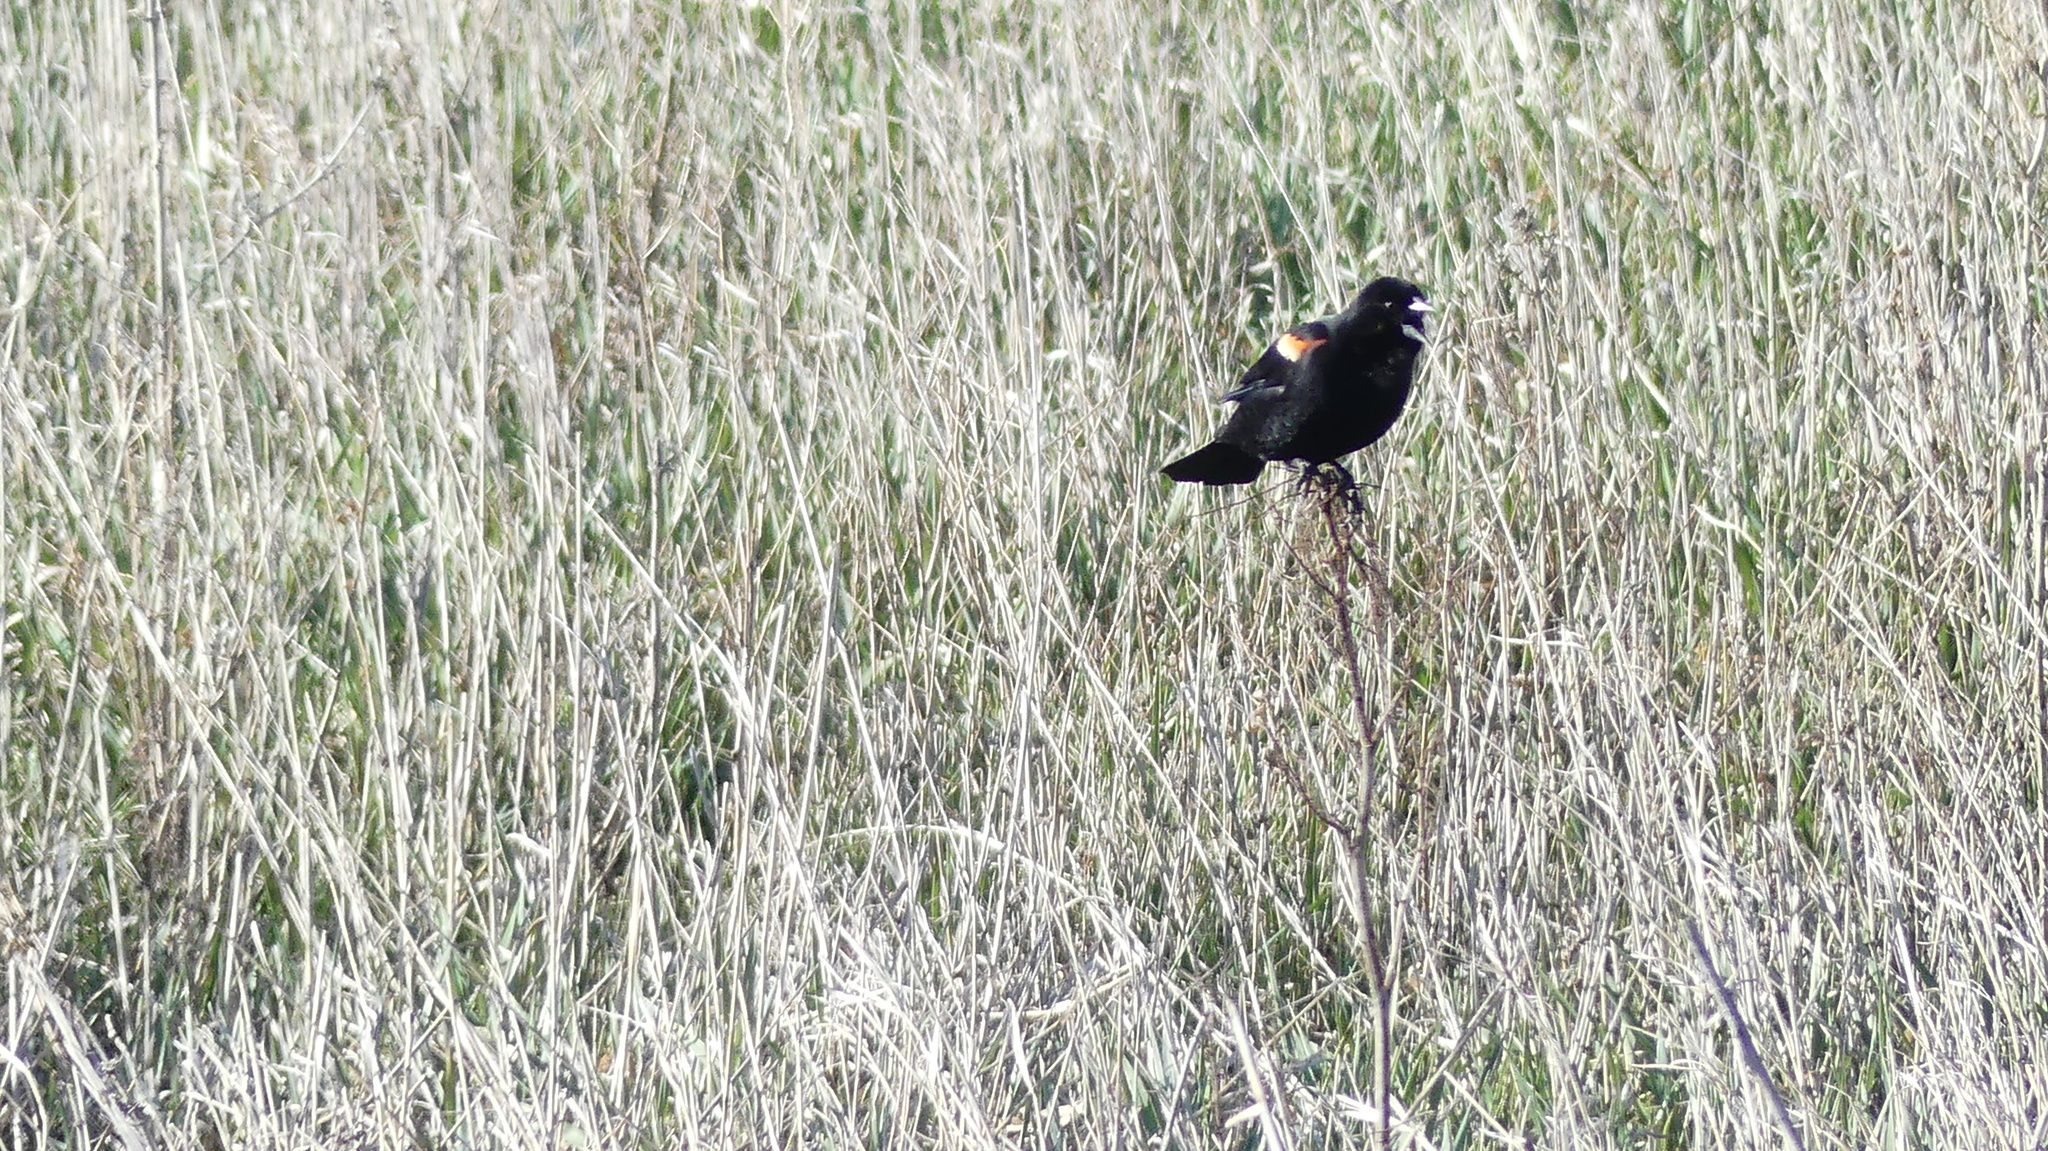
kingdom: Animalia
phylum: Chordata
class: Aves
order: Passeriformes
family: Icteridae
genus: Agelaius
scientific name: Agelaius phoeniceus
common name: Red-winged blackbird
